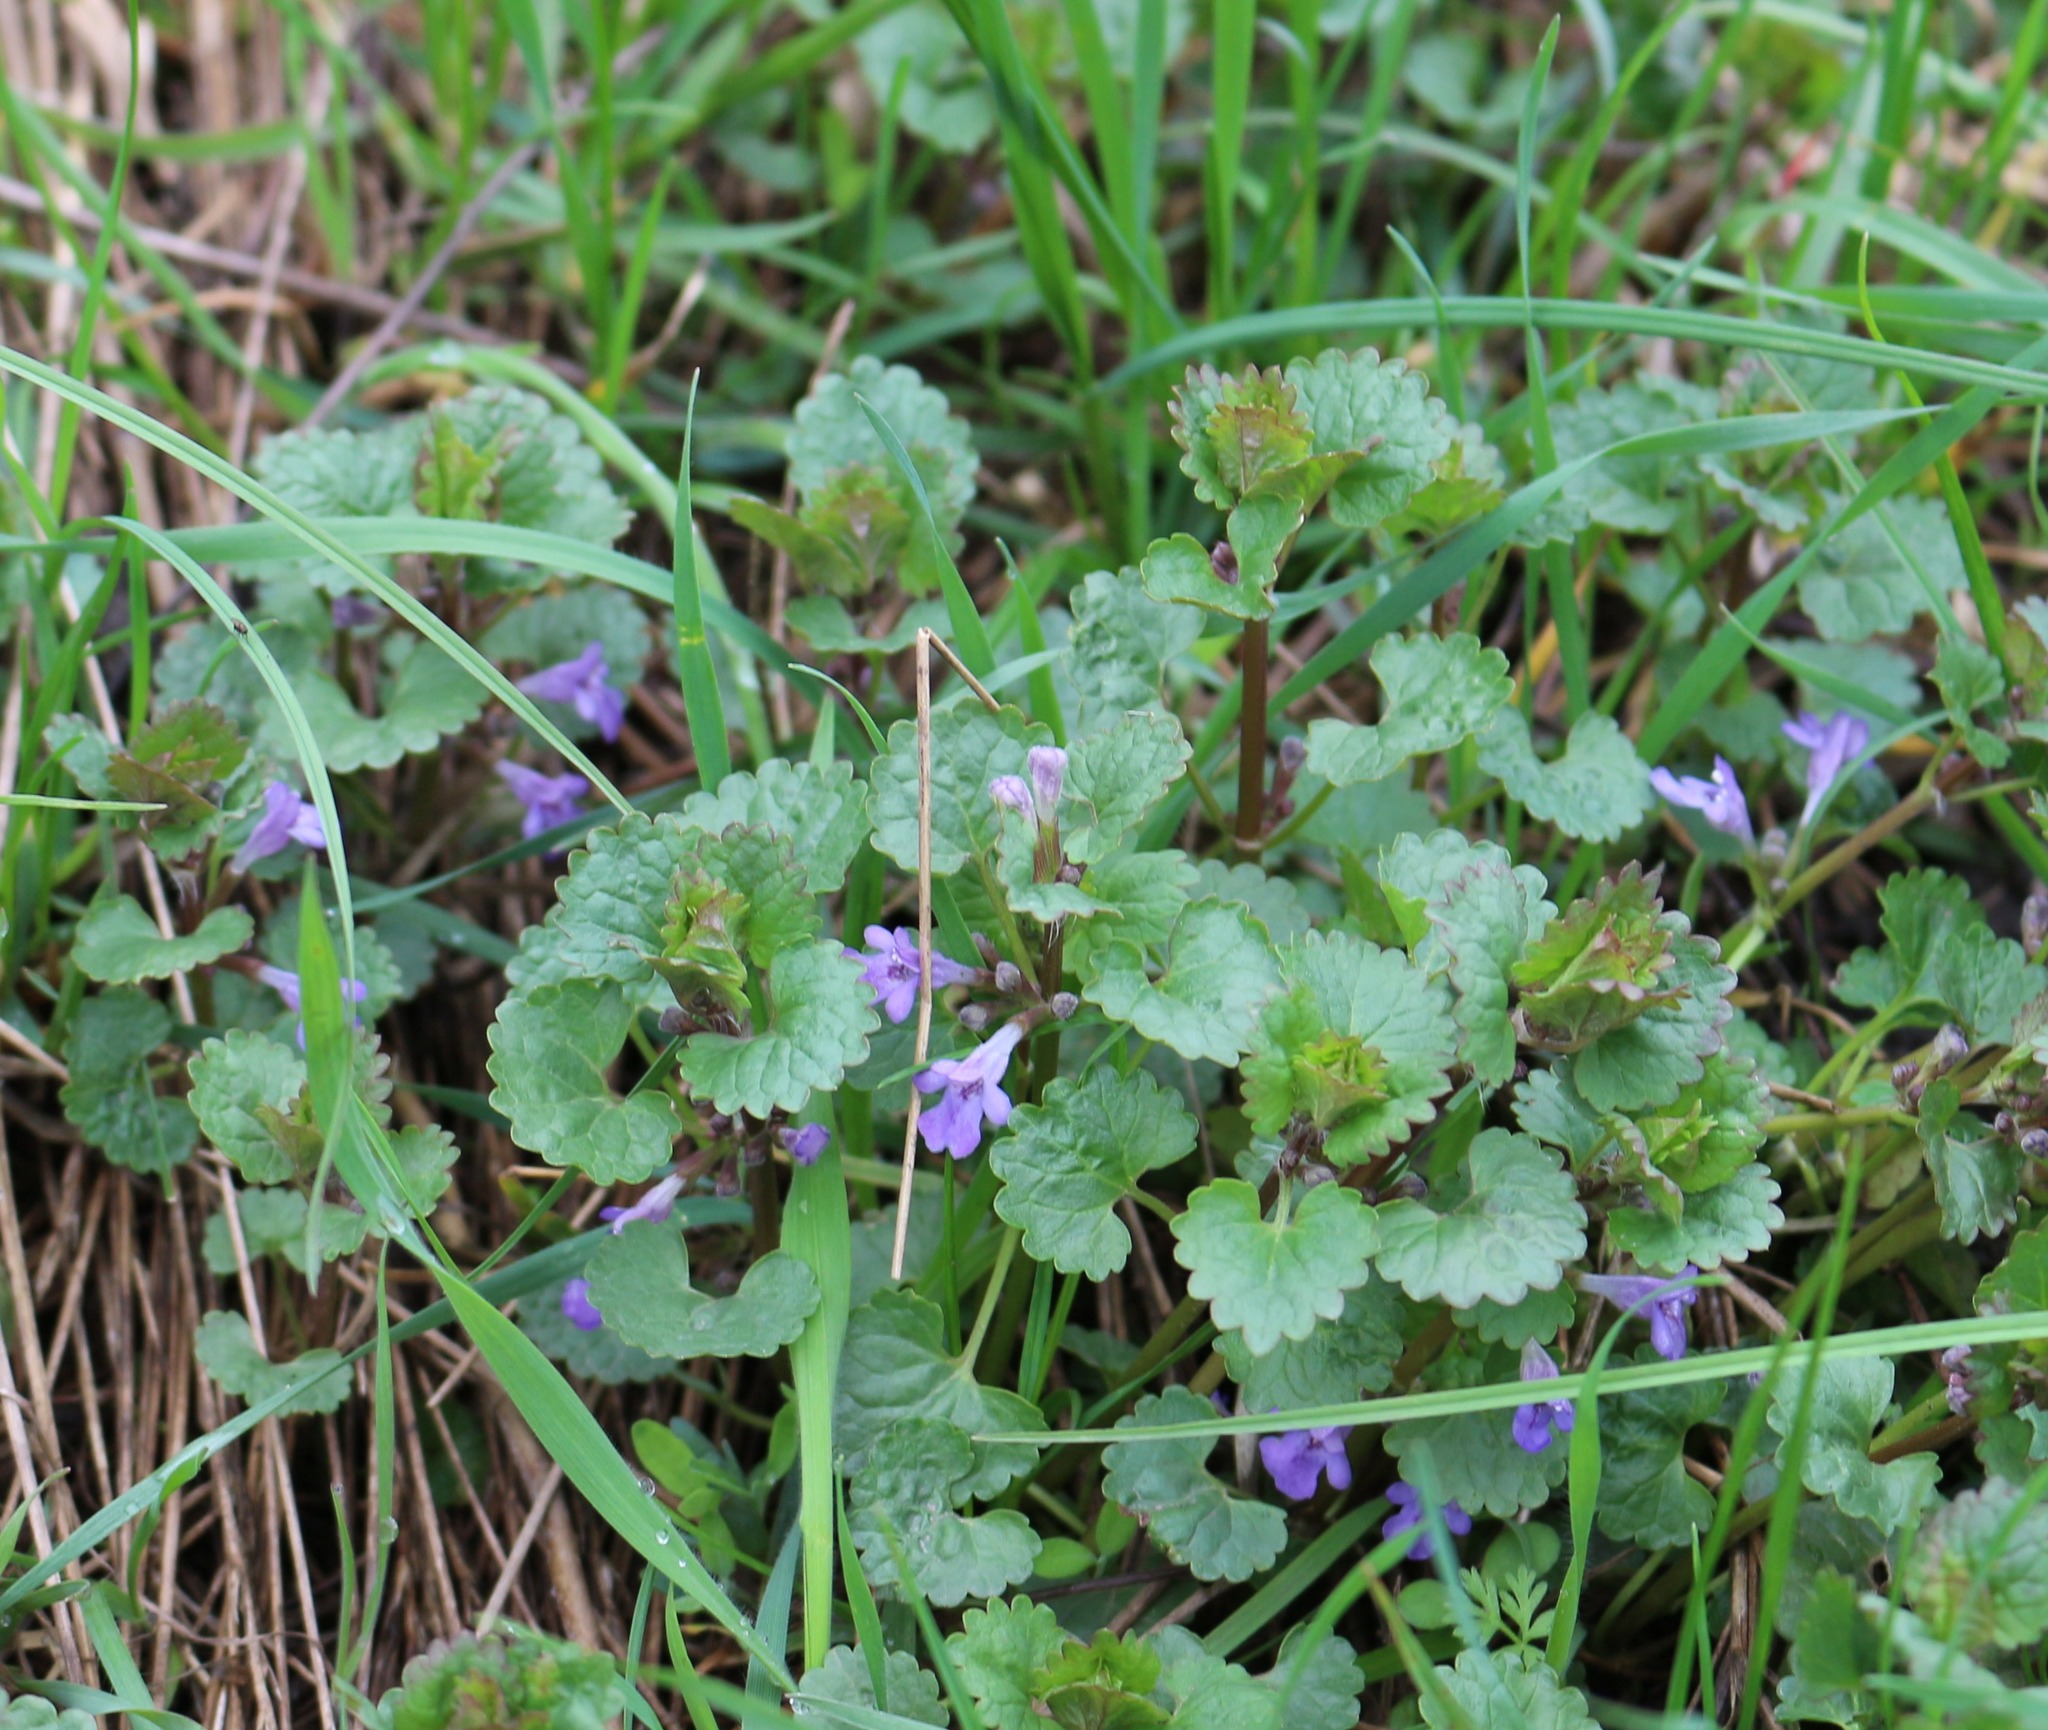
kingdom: Plantae
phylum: Tracheophyta
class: Magnoliopsida
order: Lamiales
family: Lamiaceae
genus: Glechoma
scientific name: Glechoma hederacea
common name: Ground ivy
